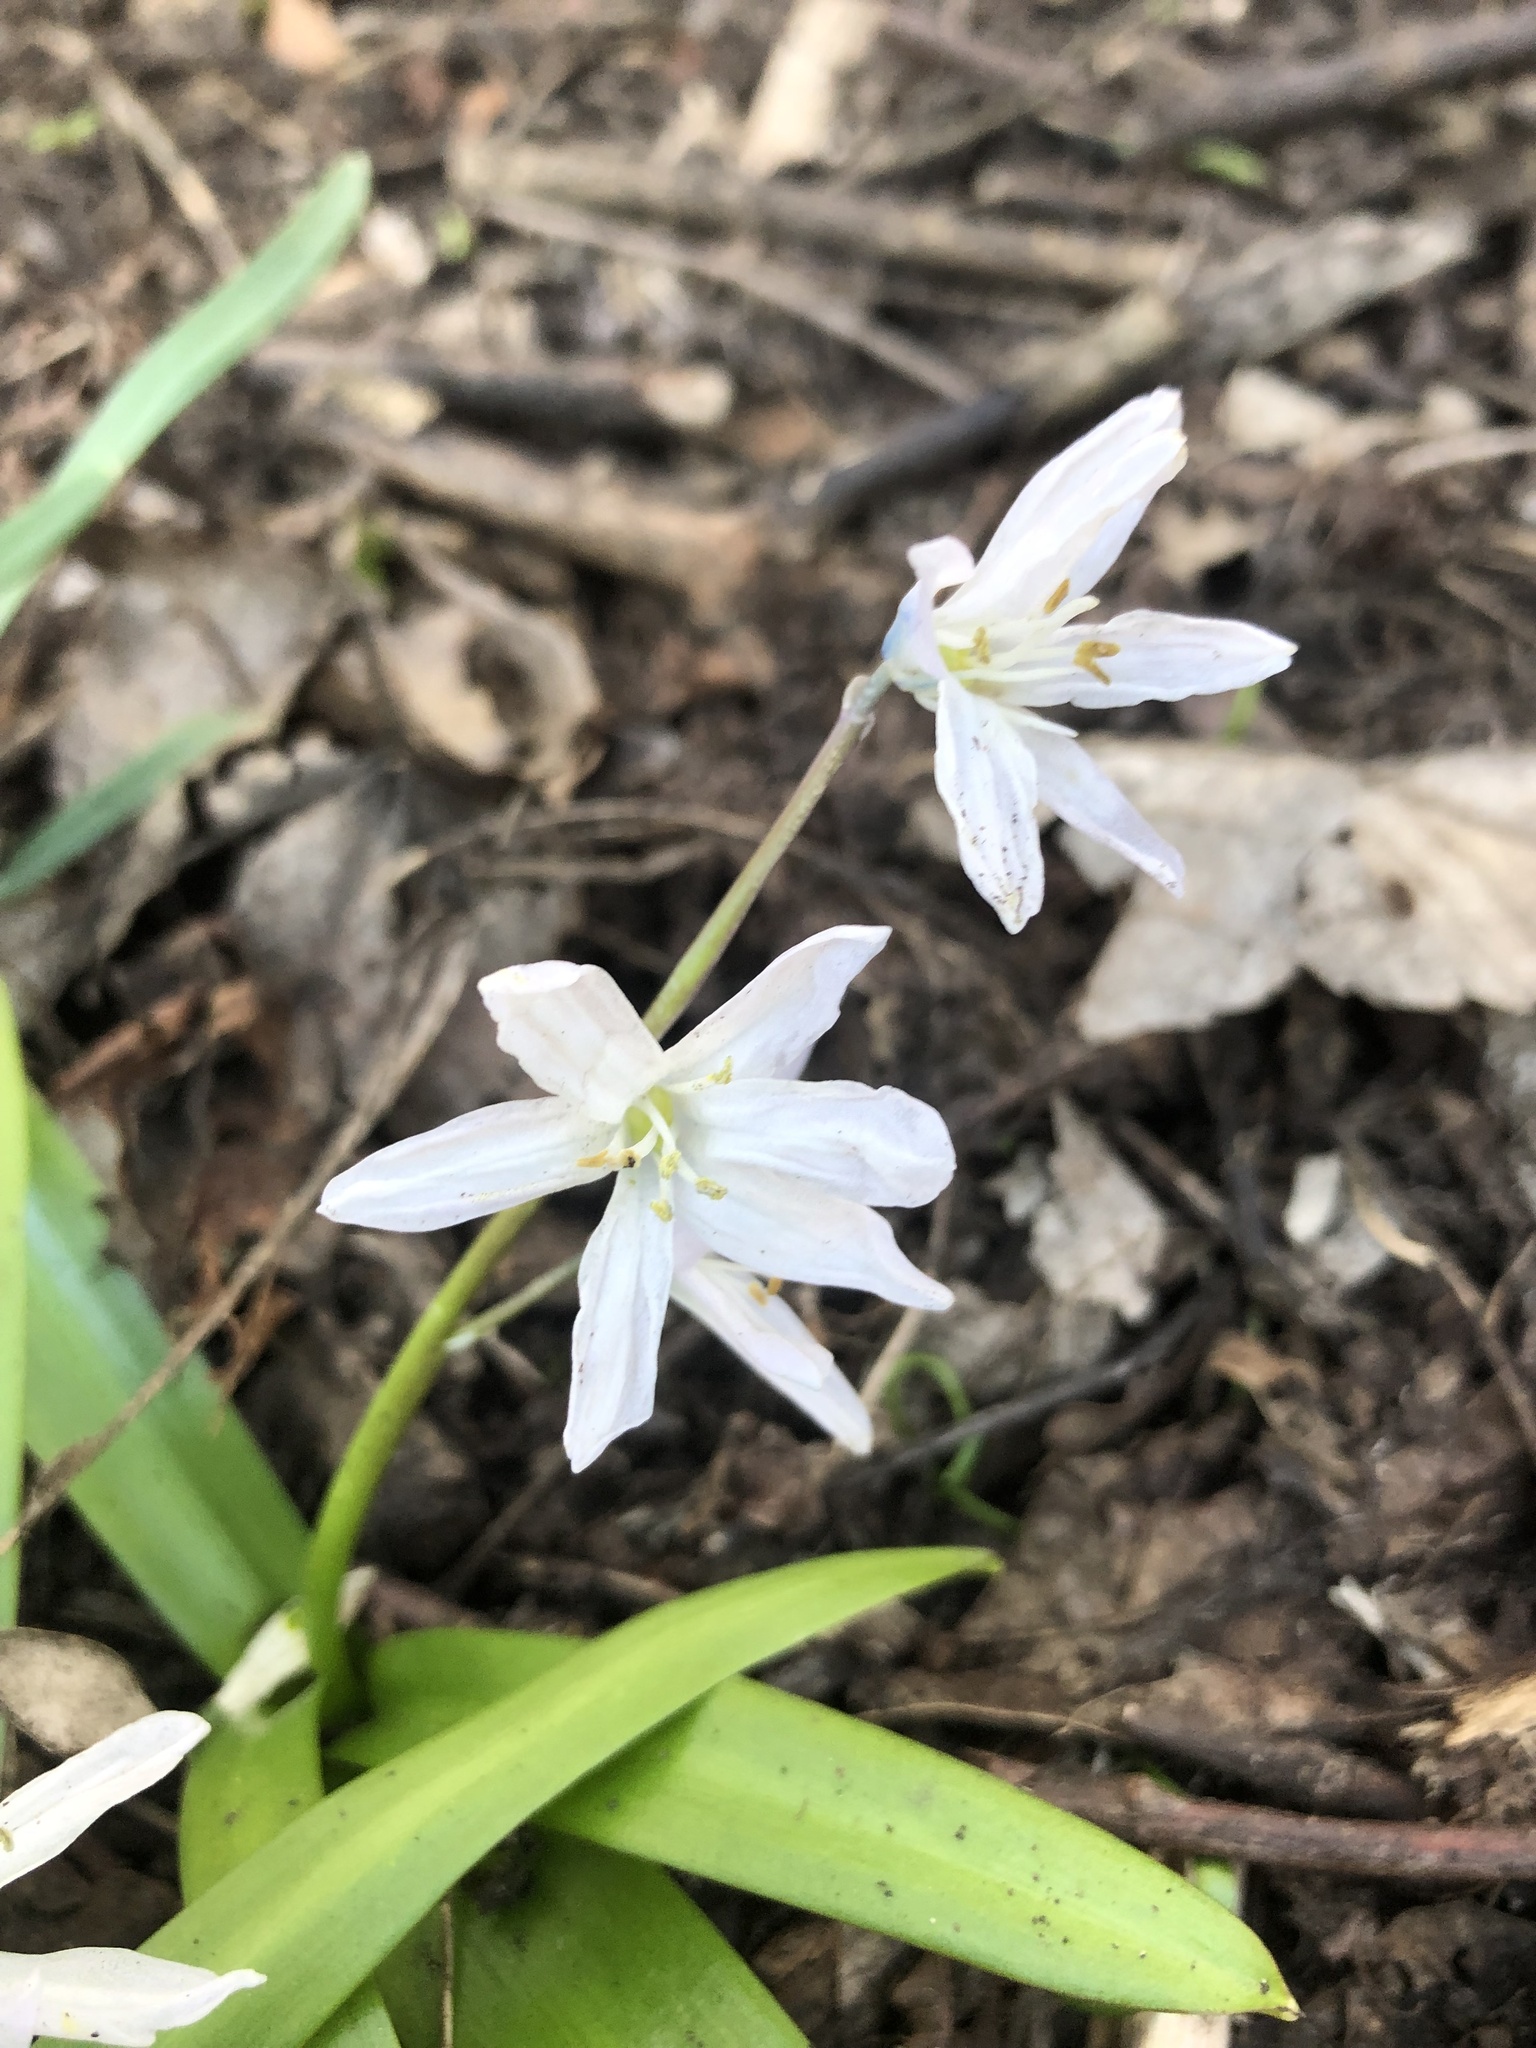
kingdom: Plantae
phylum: Tracheophyta
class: Liliopsida
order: Asparagales
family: Asparagaceae
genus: Scilla
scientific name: Scilla mischtschenkoana
